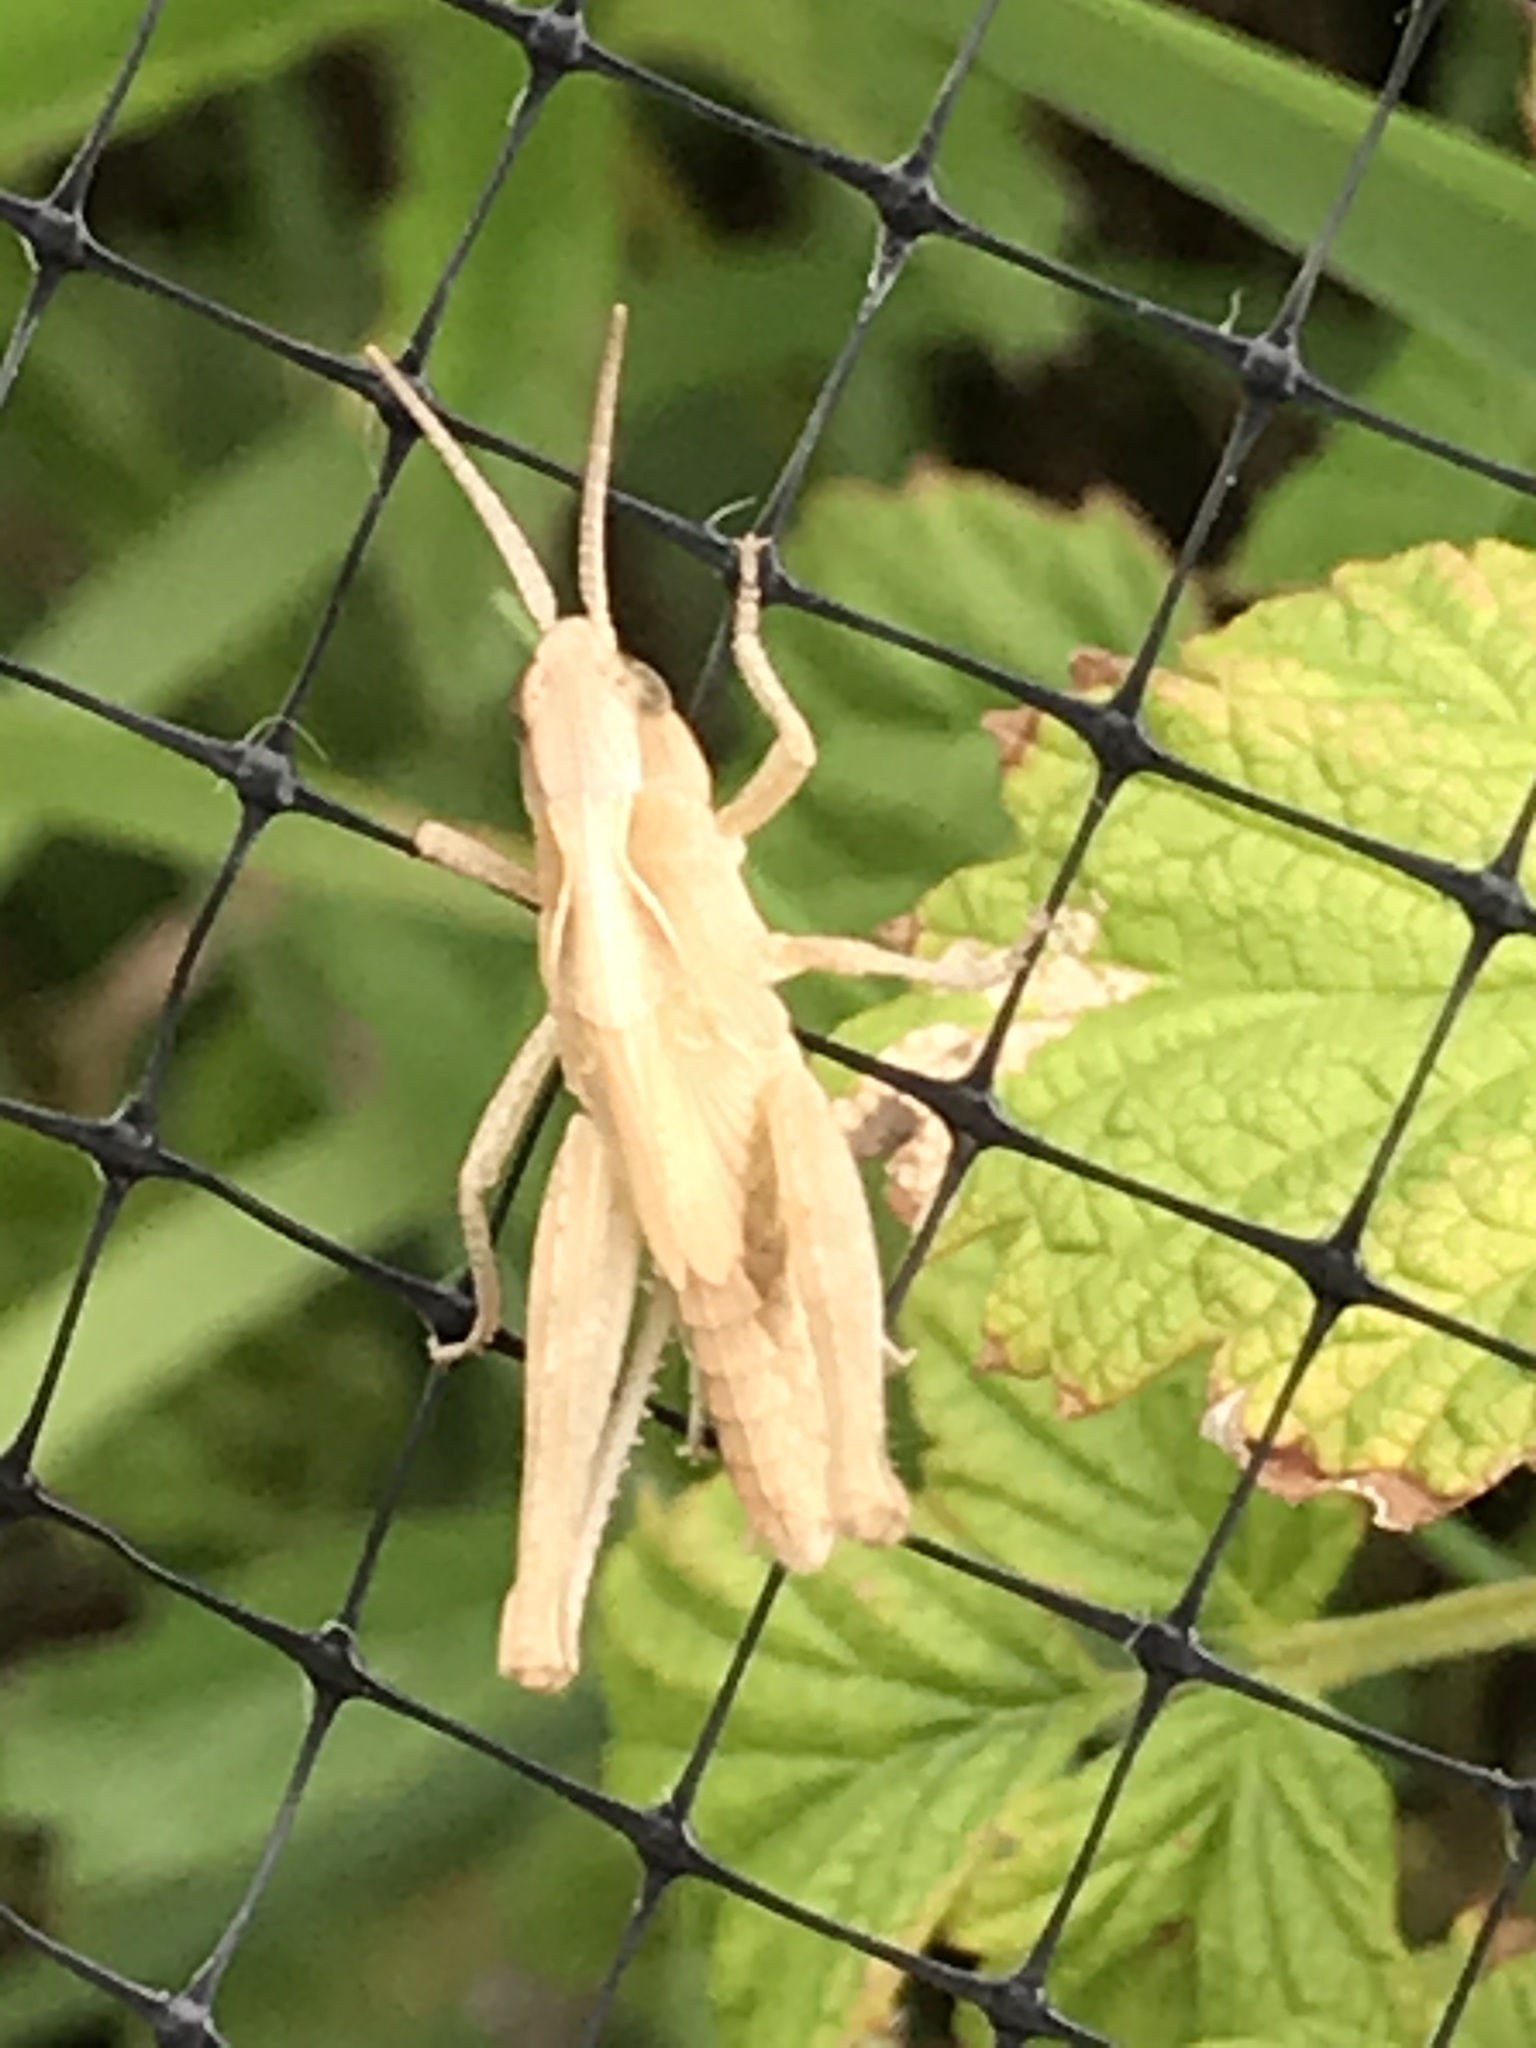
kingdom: Animalia
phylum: Arthropoda
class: Insecta
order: Orthoptera
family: Acrididae
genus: Chorthippus
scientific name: Chorthippus brunneus
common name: Field grasshopper
